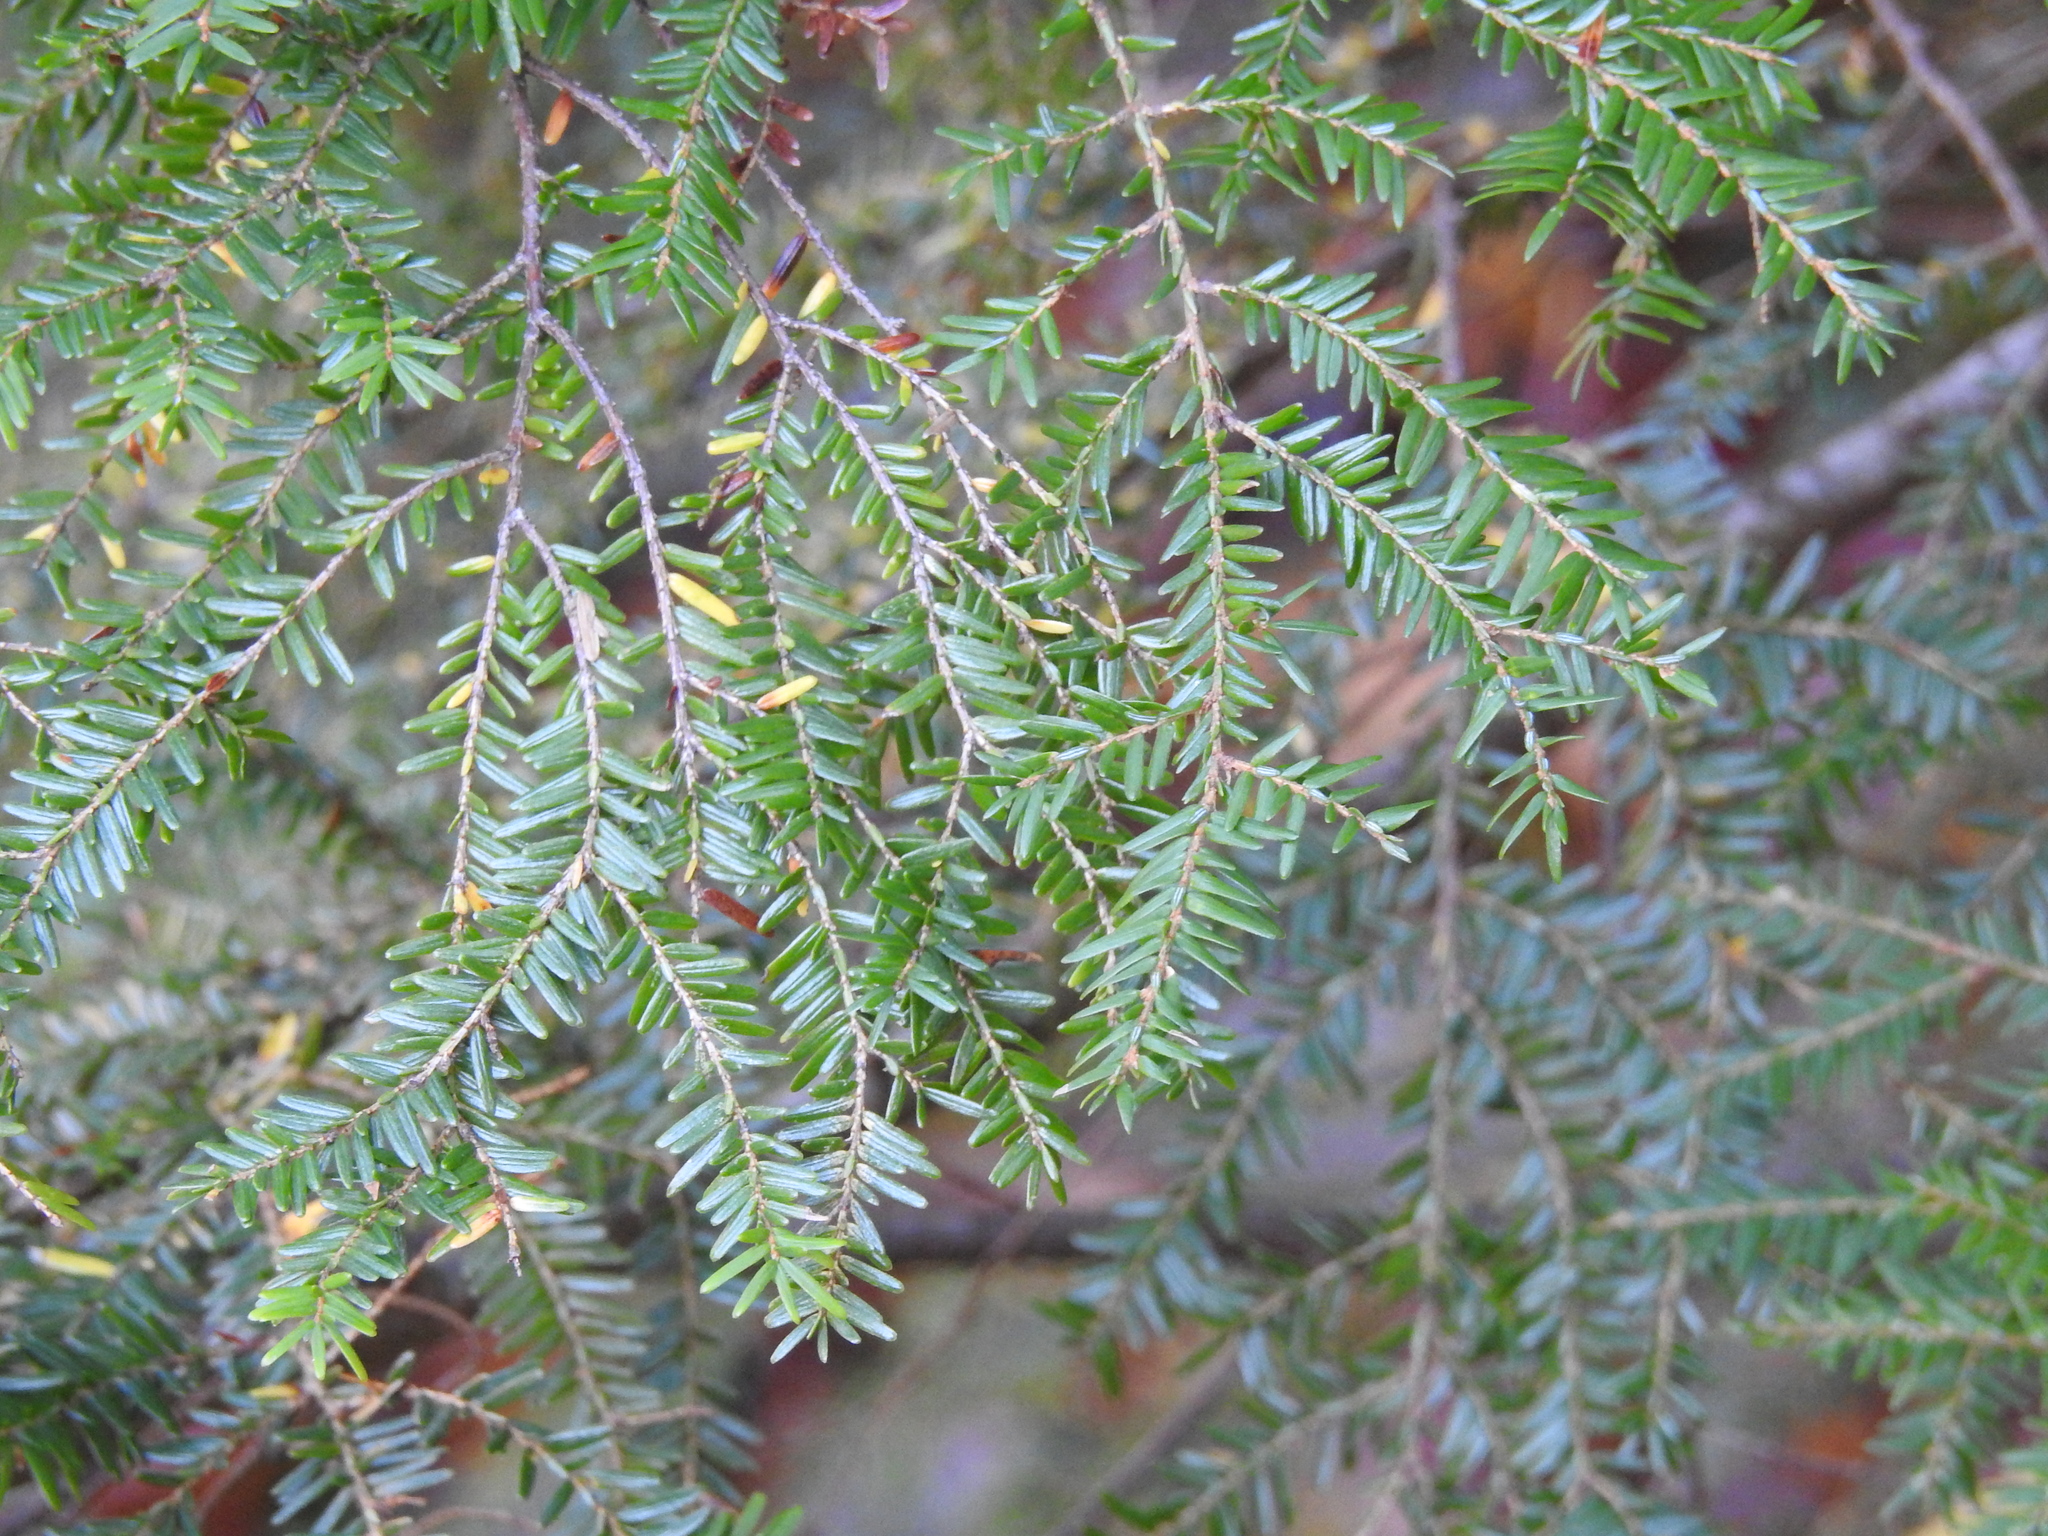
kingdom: Plantae
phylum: Tracheophyta
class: Pinopsida
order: Pinales
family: Pinaceae
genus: Tsuga
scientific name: Tsuga canadensis
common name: Eastern hemlock
